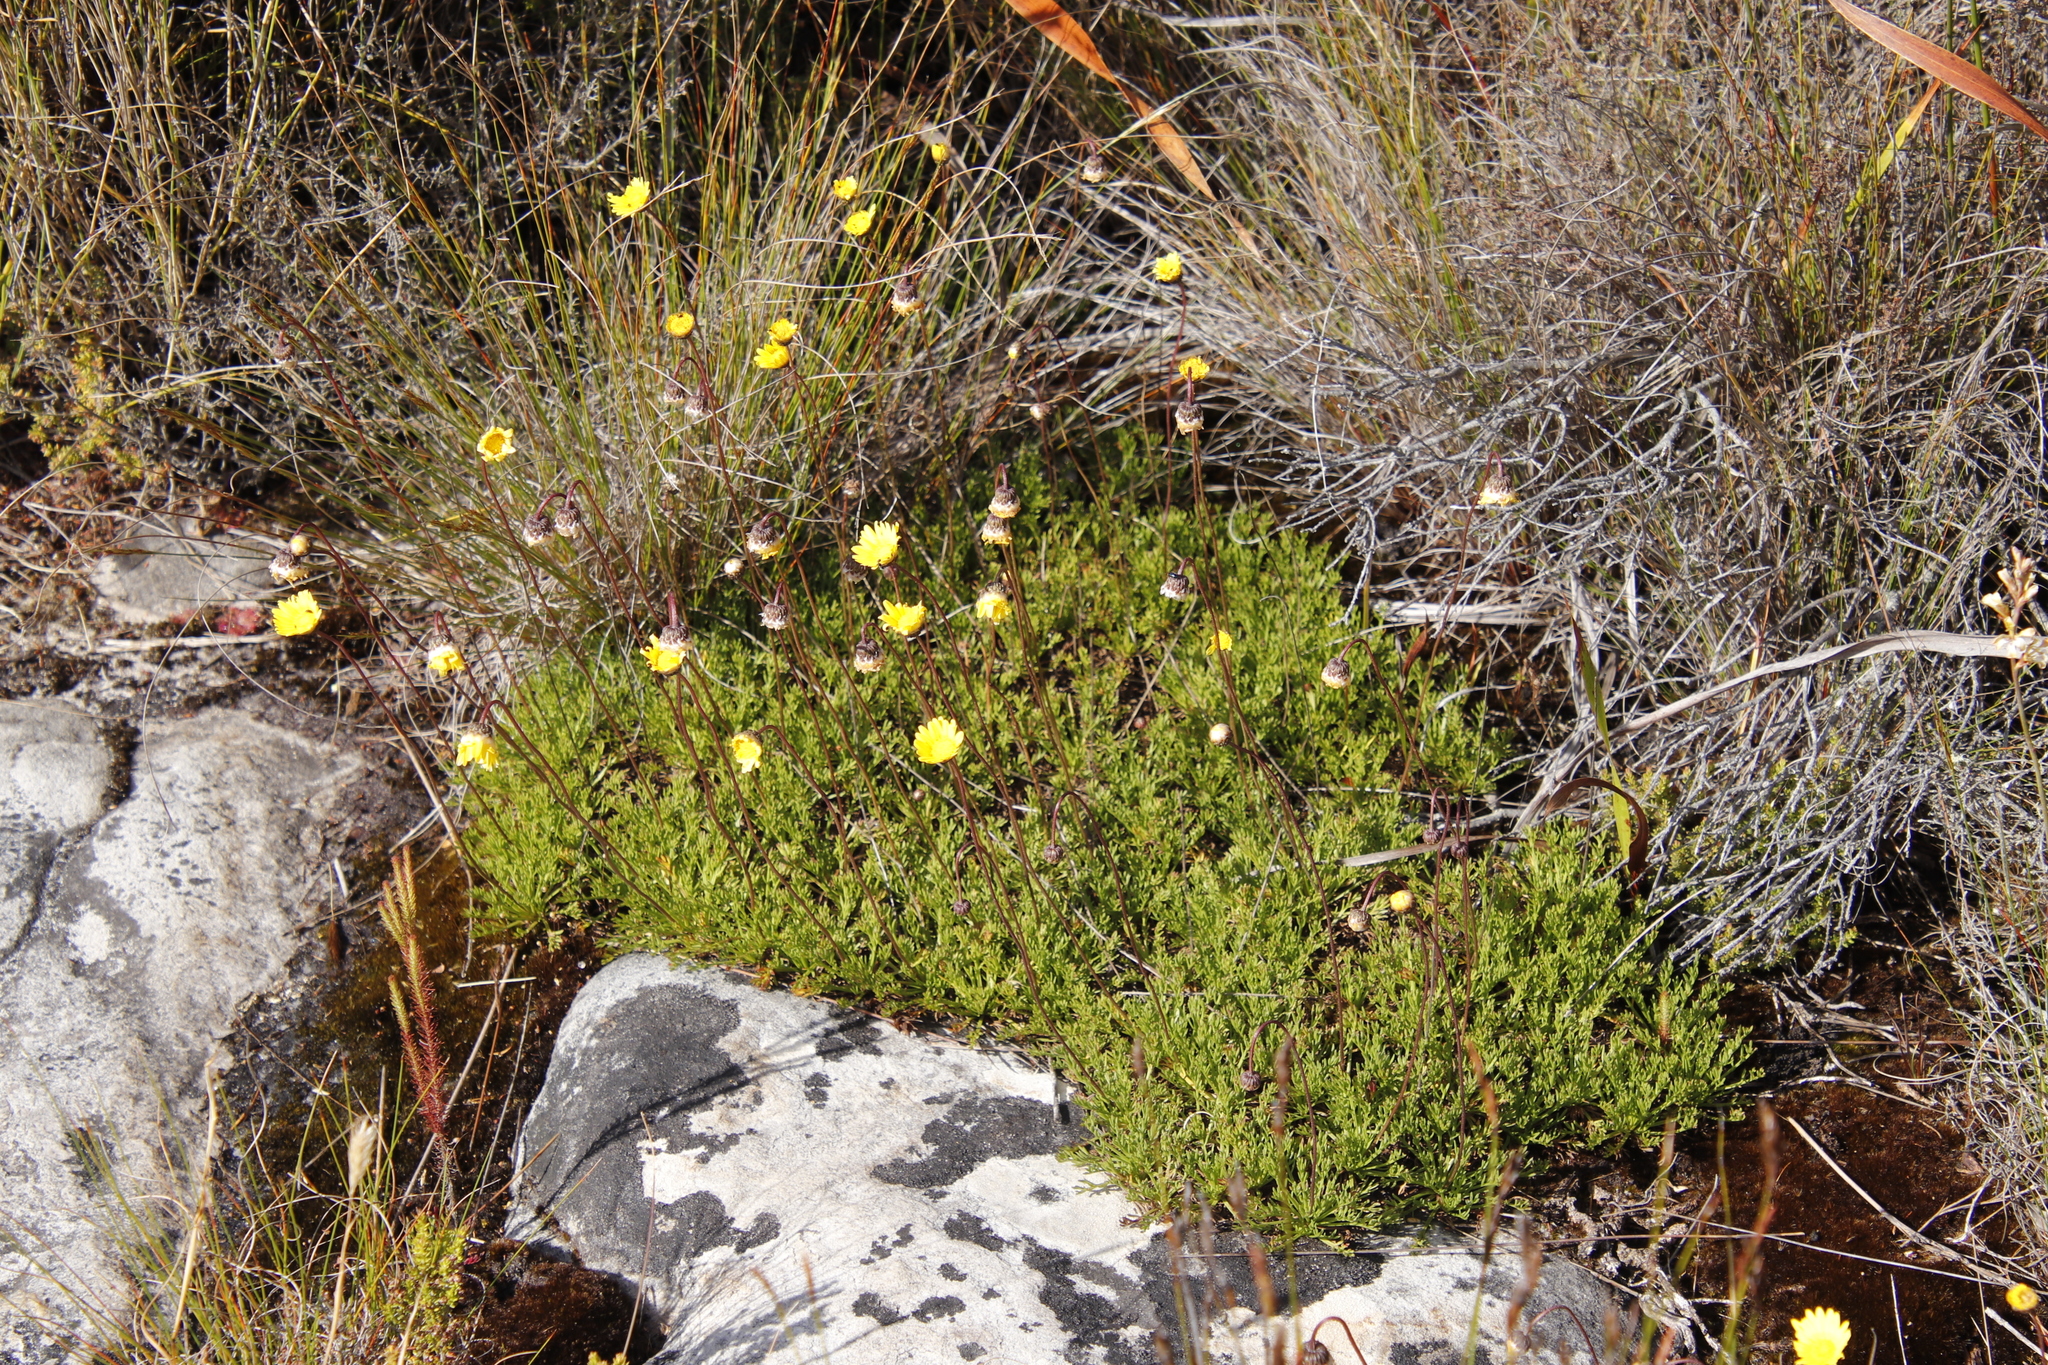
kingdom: Plantae
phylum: Tracheophyta
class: Magnoliopsida
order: Asterales
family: Asteraceae
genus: Ursinia
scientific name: Ursinia nudicaulis
